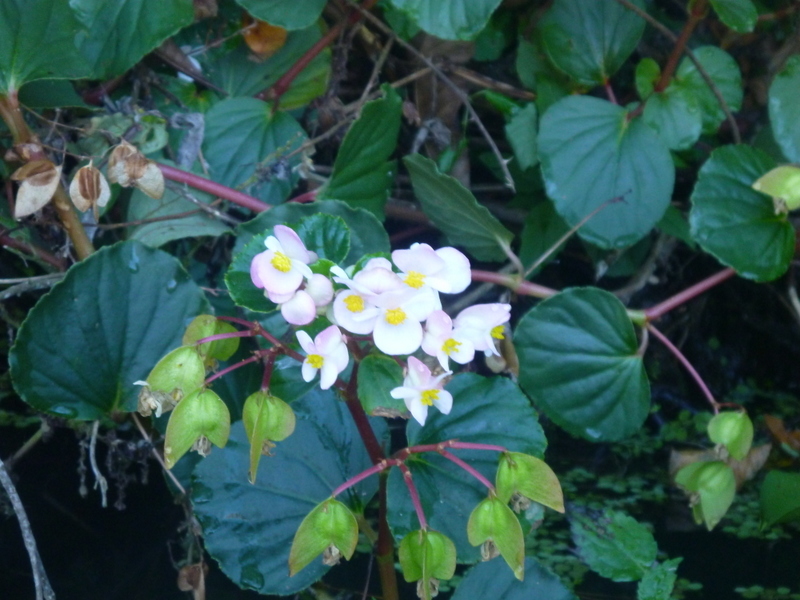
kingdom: Plantae
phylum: Tracheophyta
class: Magnoliopsida
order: Cucurbitales
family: Begoniaceae
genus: Begonia
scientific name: Begonia cucullata
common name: Clubbed begonia
